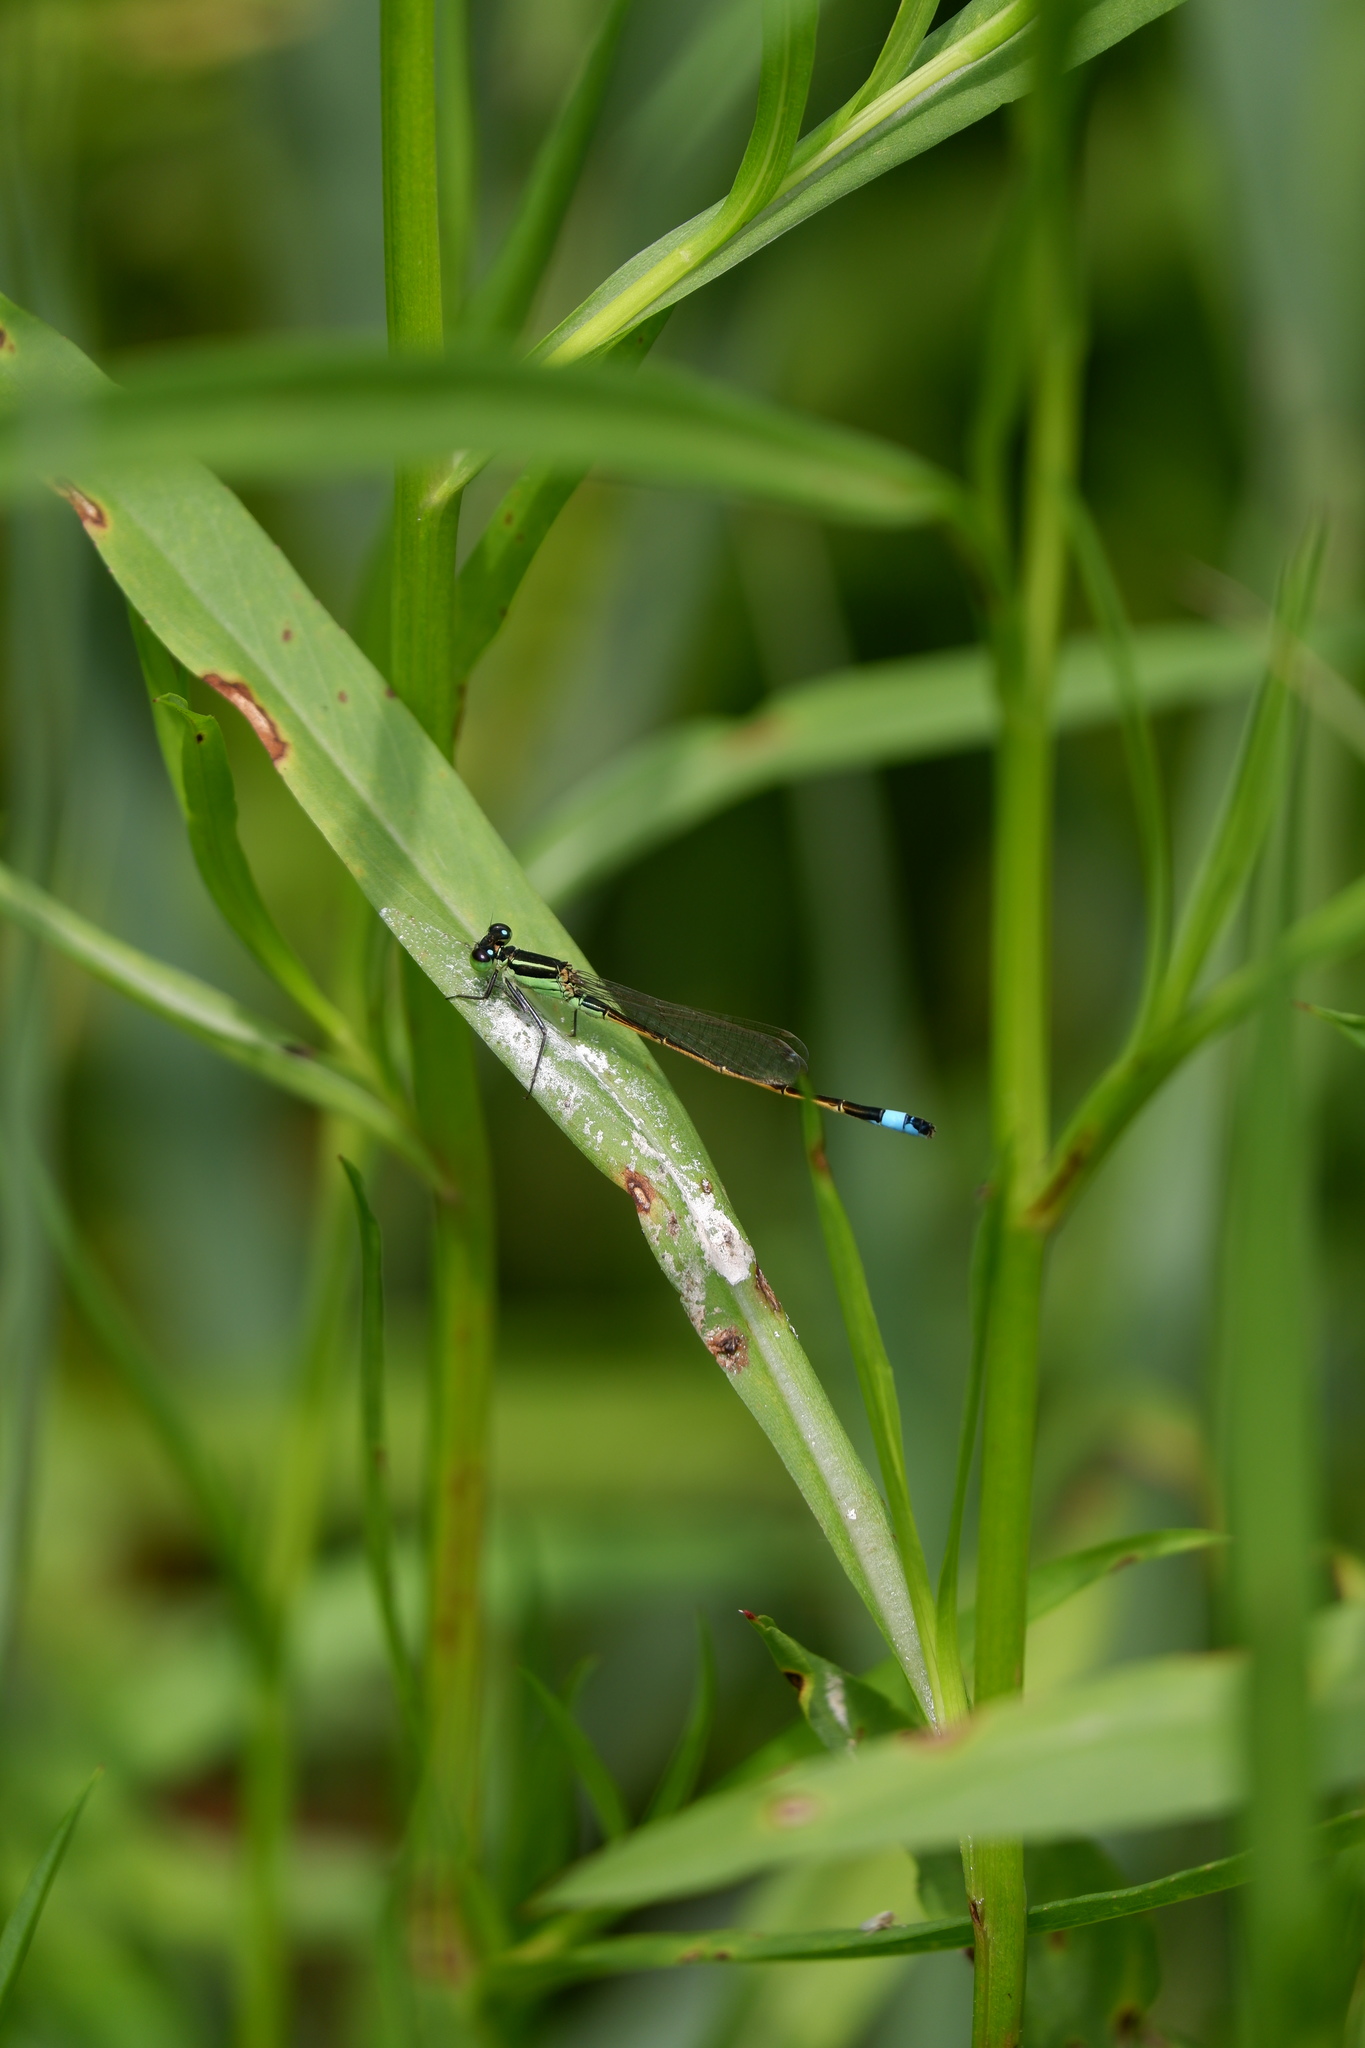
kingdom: Animalia
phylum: Arthropoda
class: Insecta
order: Odonata
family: Coenagrionidae
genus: Ischnura
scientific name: Ischnura ramburii
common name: Rambur's forktail
